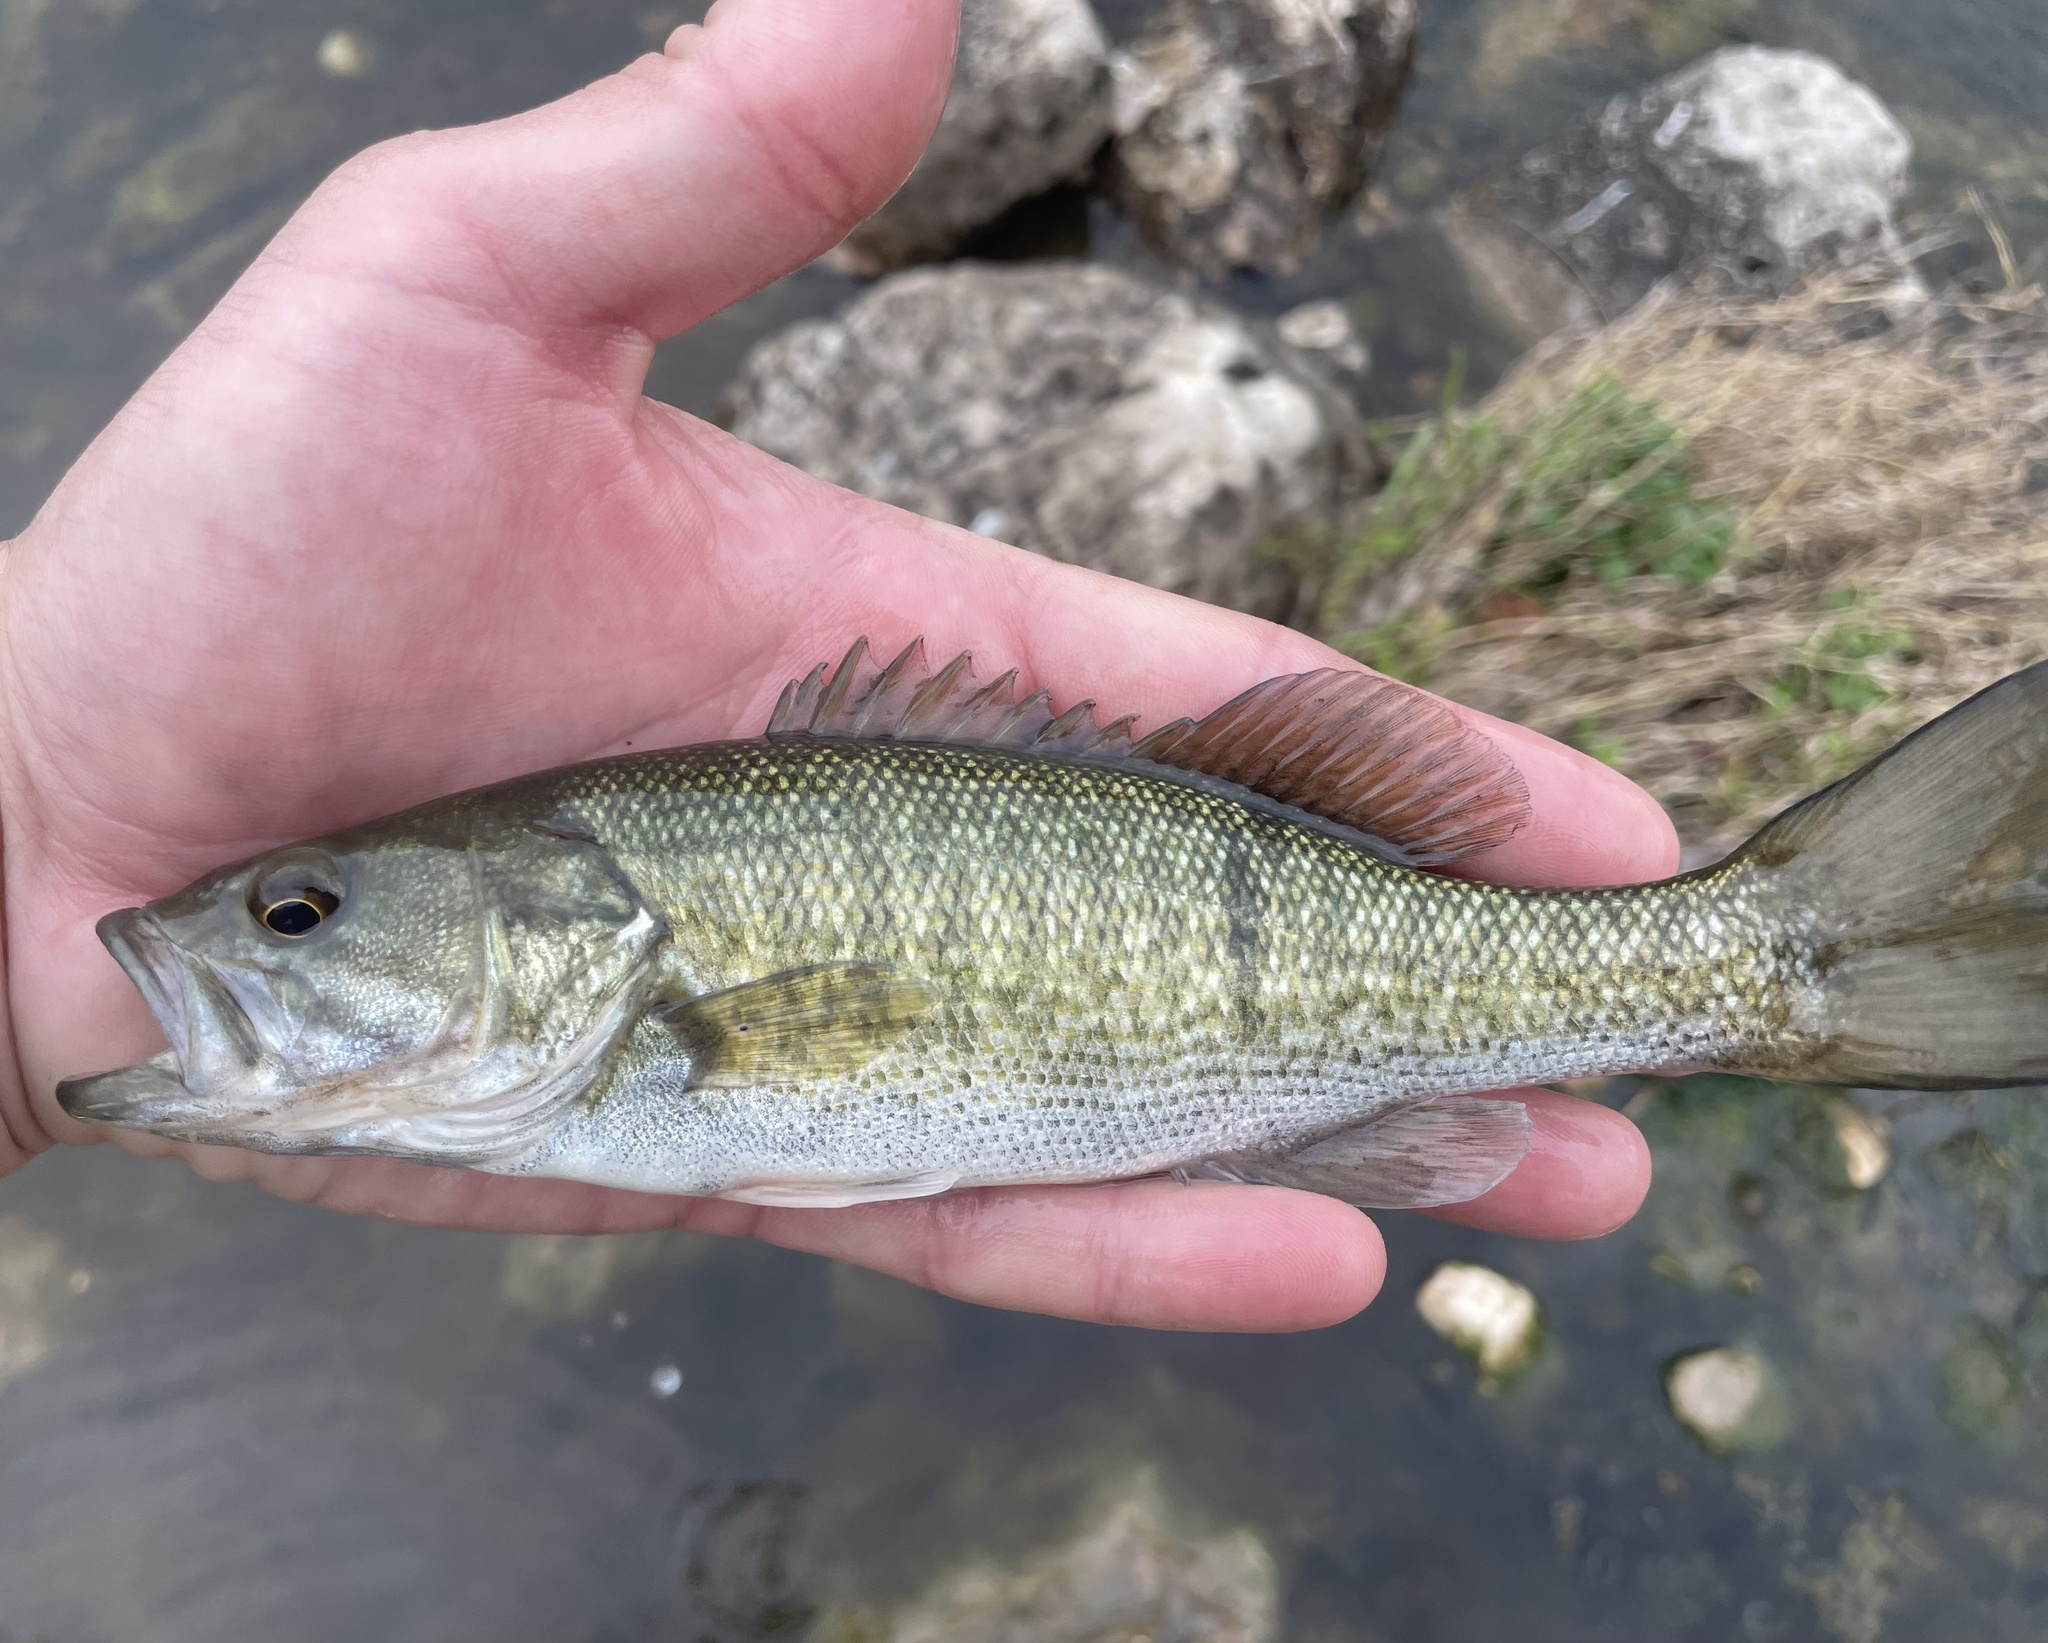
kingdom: Animalia
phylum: Chordata
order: Perciformes
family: Centrarchidae
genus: Micropterus
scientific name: Micropterus treculii
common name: Guadalupe bass
